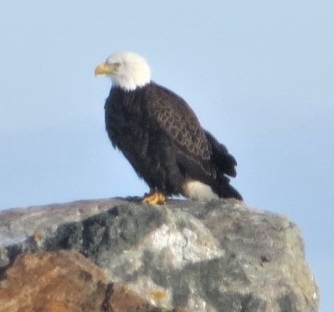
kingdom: Animalia
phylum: Chordata
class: Aves
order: Accipitriformes
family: Accipitridae
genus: Haliaeetus
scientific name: Haliaeetus leucocephalus
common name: Bald eagle
